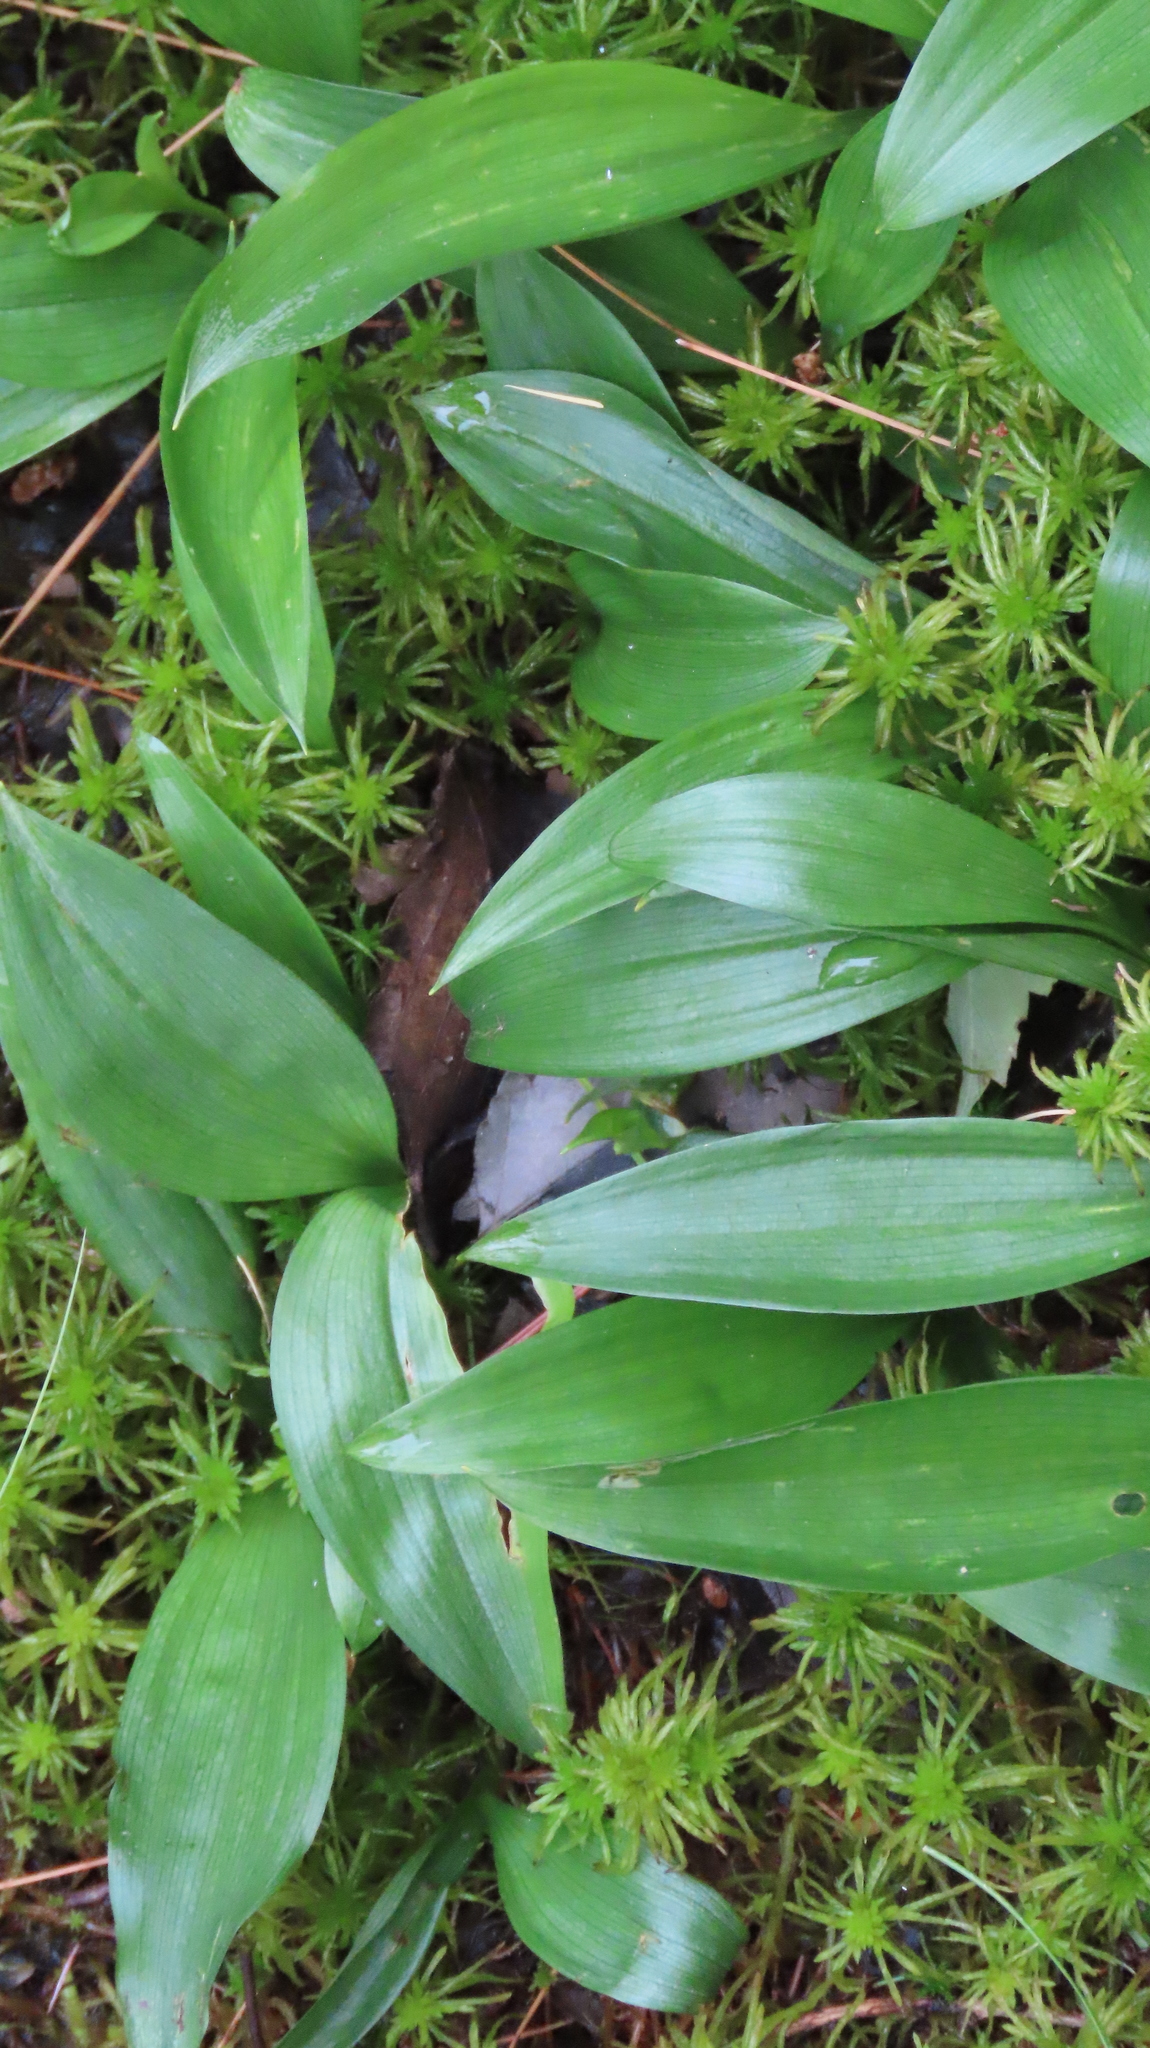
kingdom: Plantae
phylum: Tracheophyta
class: Liliopsida
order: Liliales
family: Liliaceae
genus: Clintonia
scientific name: Clintonia borealis
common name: Yellow clintonia
